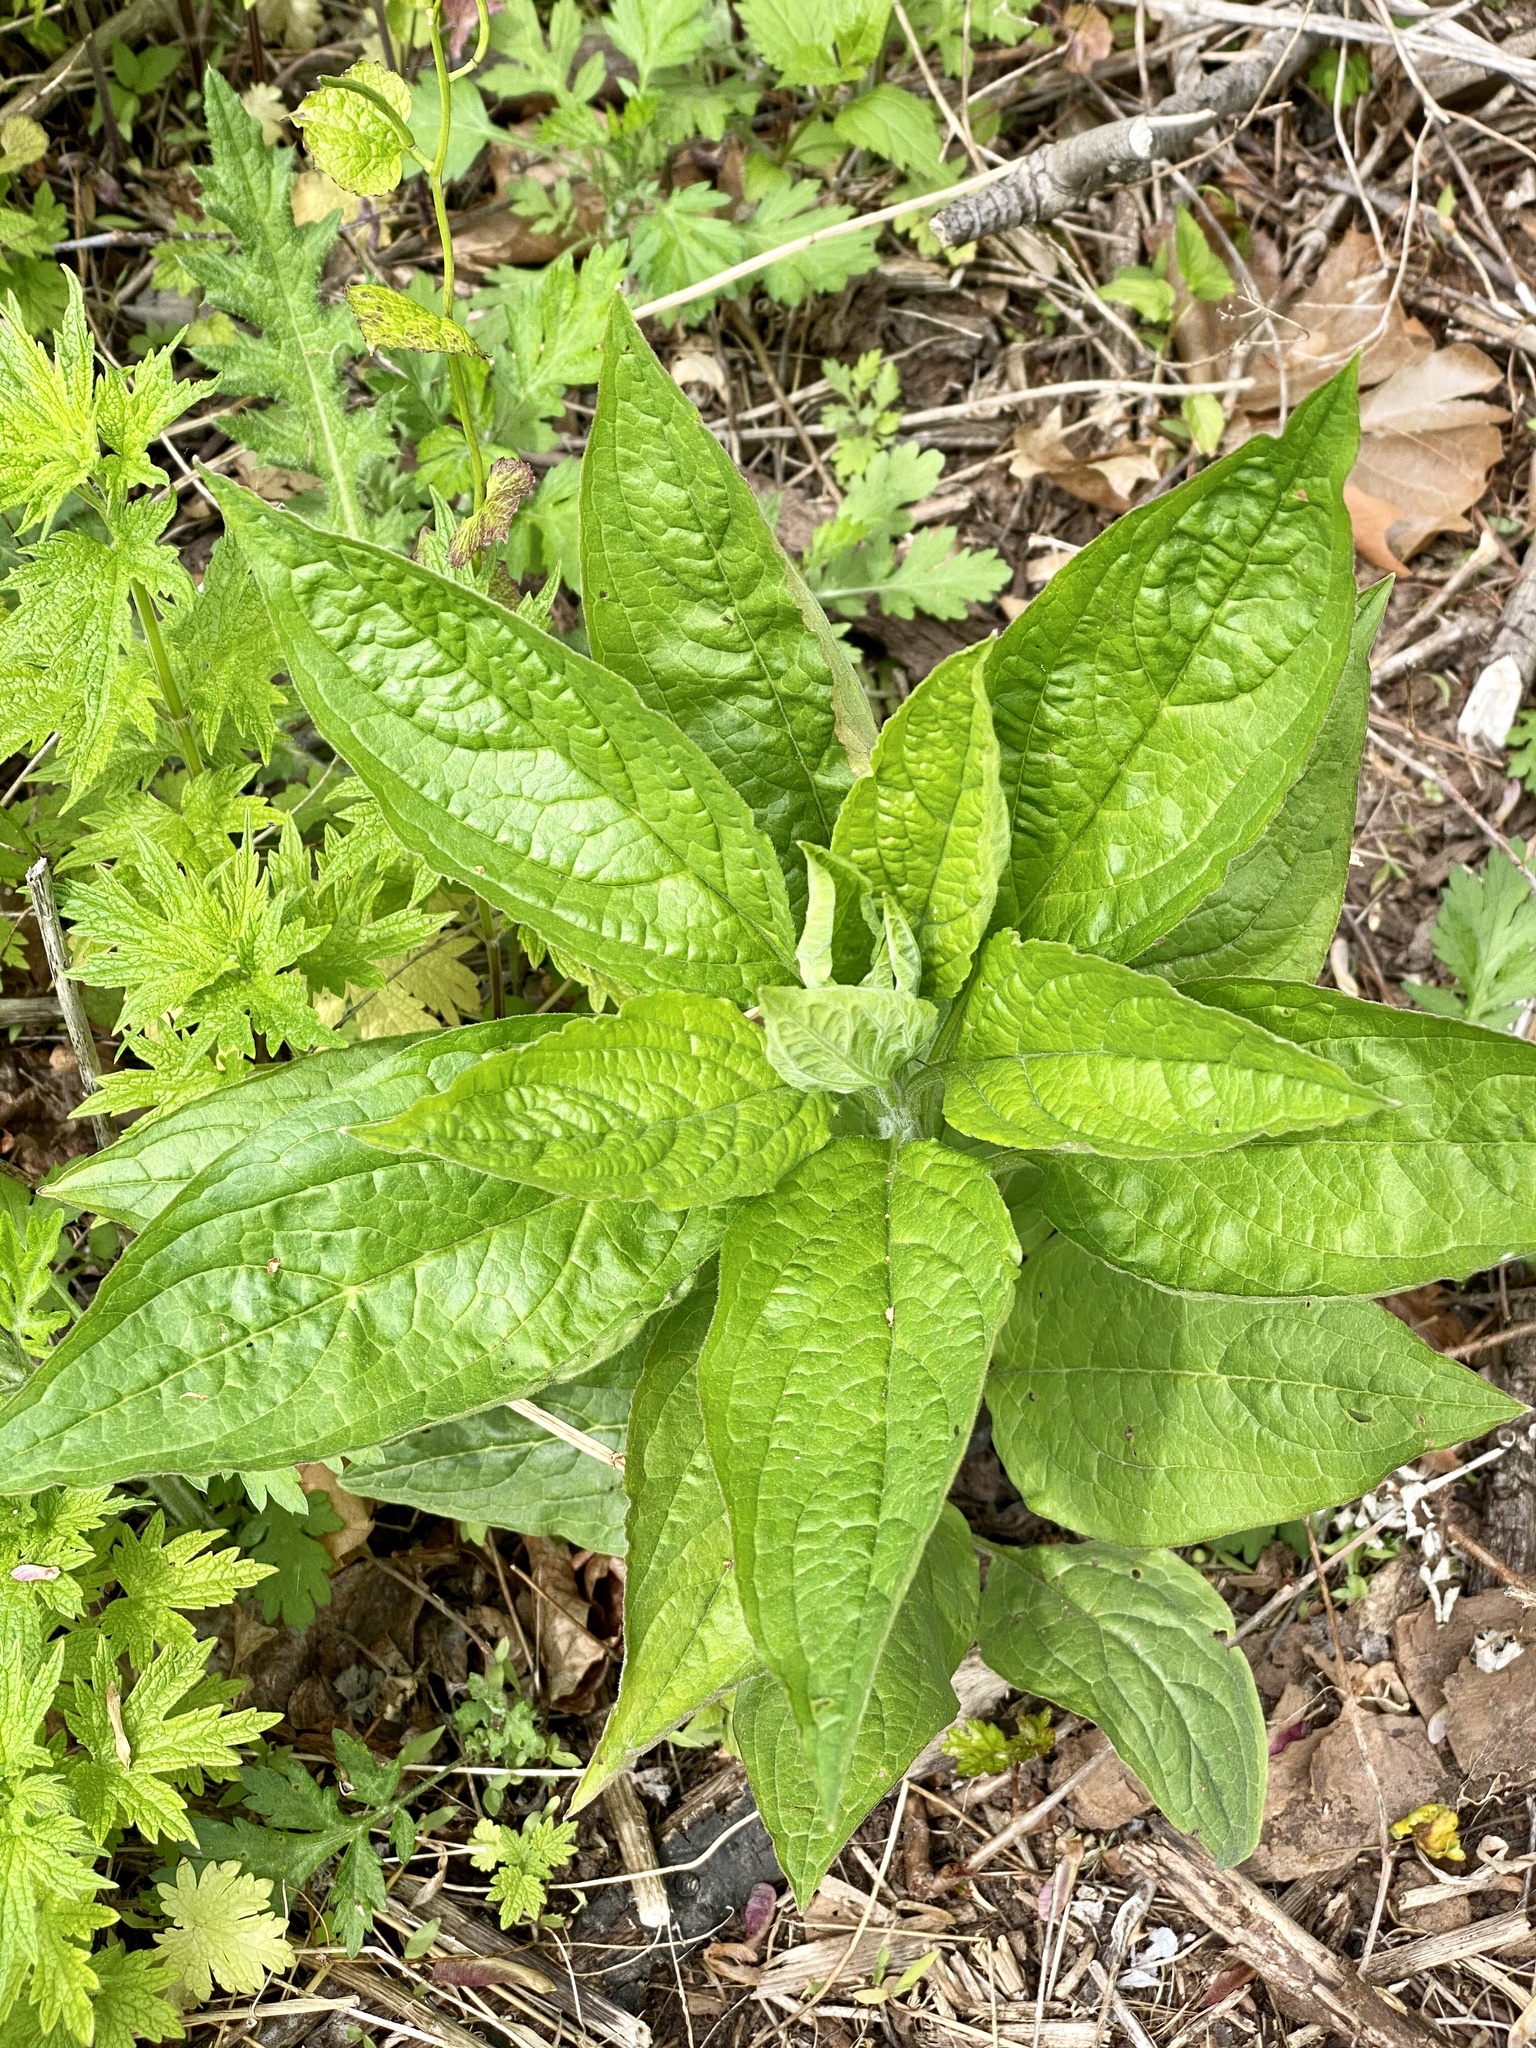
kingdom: Plantae
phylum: Tracheophyta
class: Magnoliopsida
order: Boraginales
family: Boraginaceae
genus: Hackelia
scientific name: Hackelia virginiana
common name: Beggar's-lice
